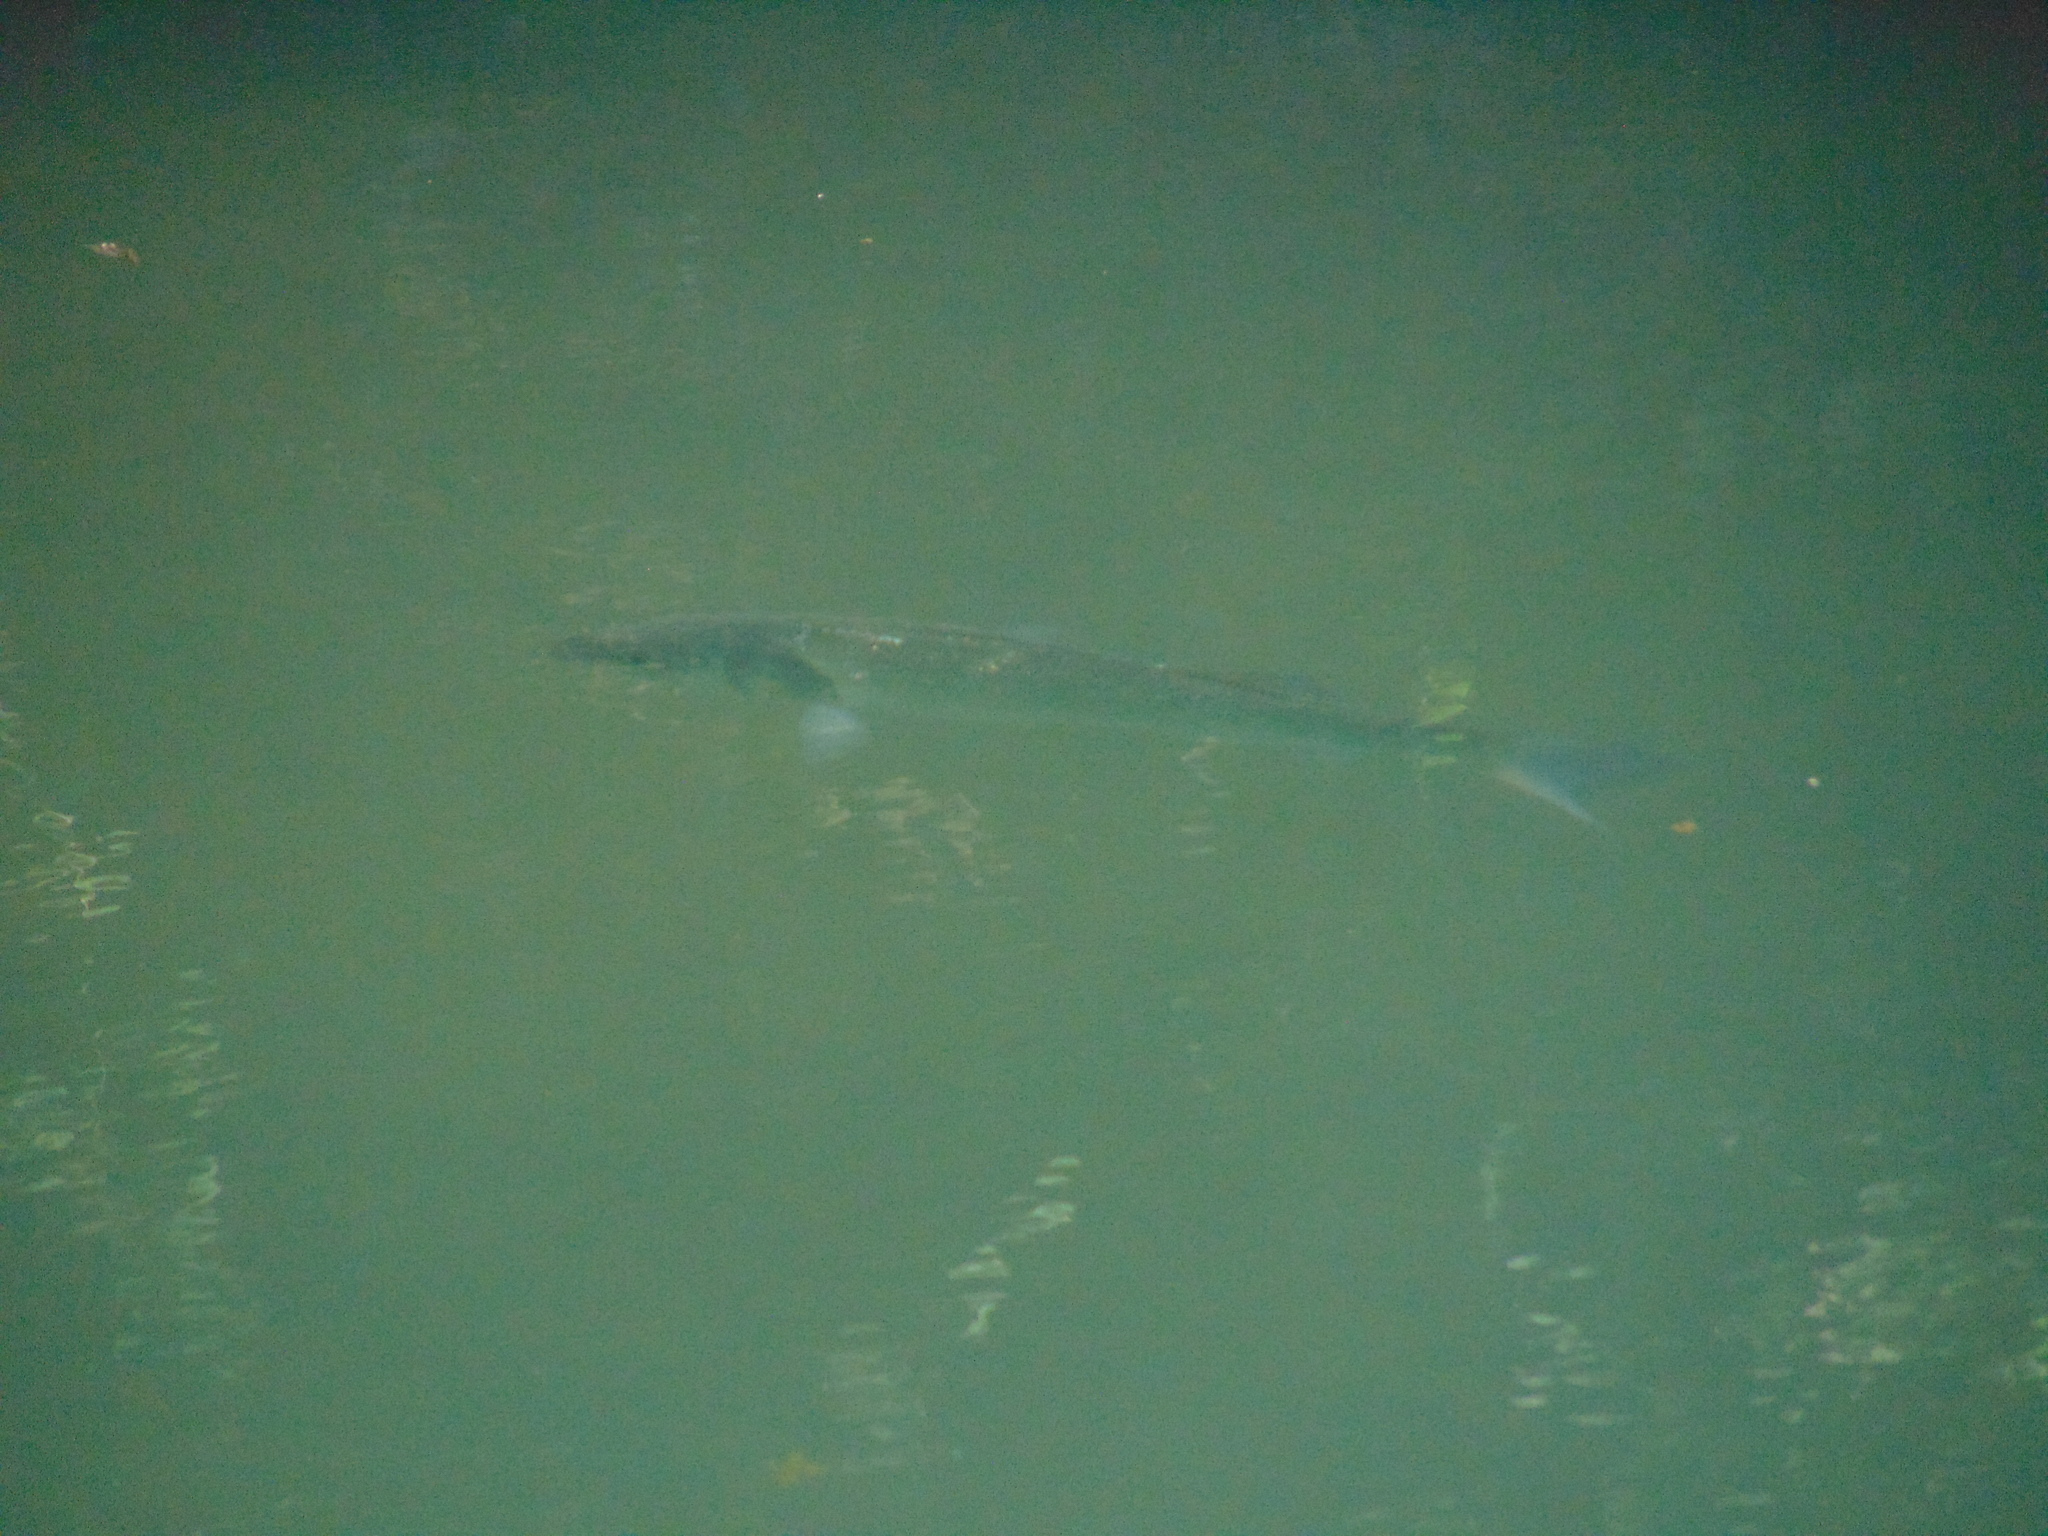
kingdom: Animalia
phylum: Chordata
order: Perciformes
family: Moronidae
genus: Dicentrarchus
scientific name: Dicentrarchus labrax
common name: European seabass
